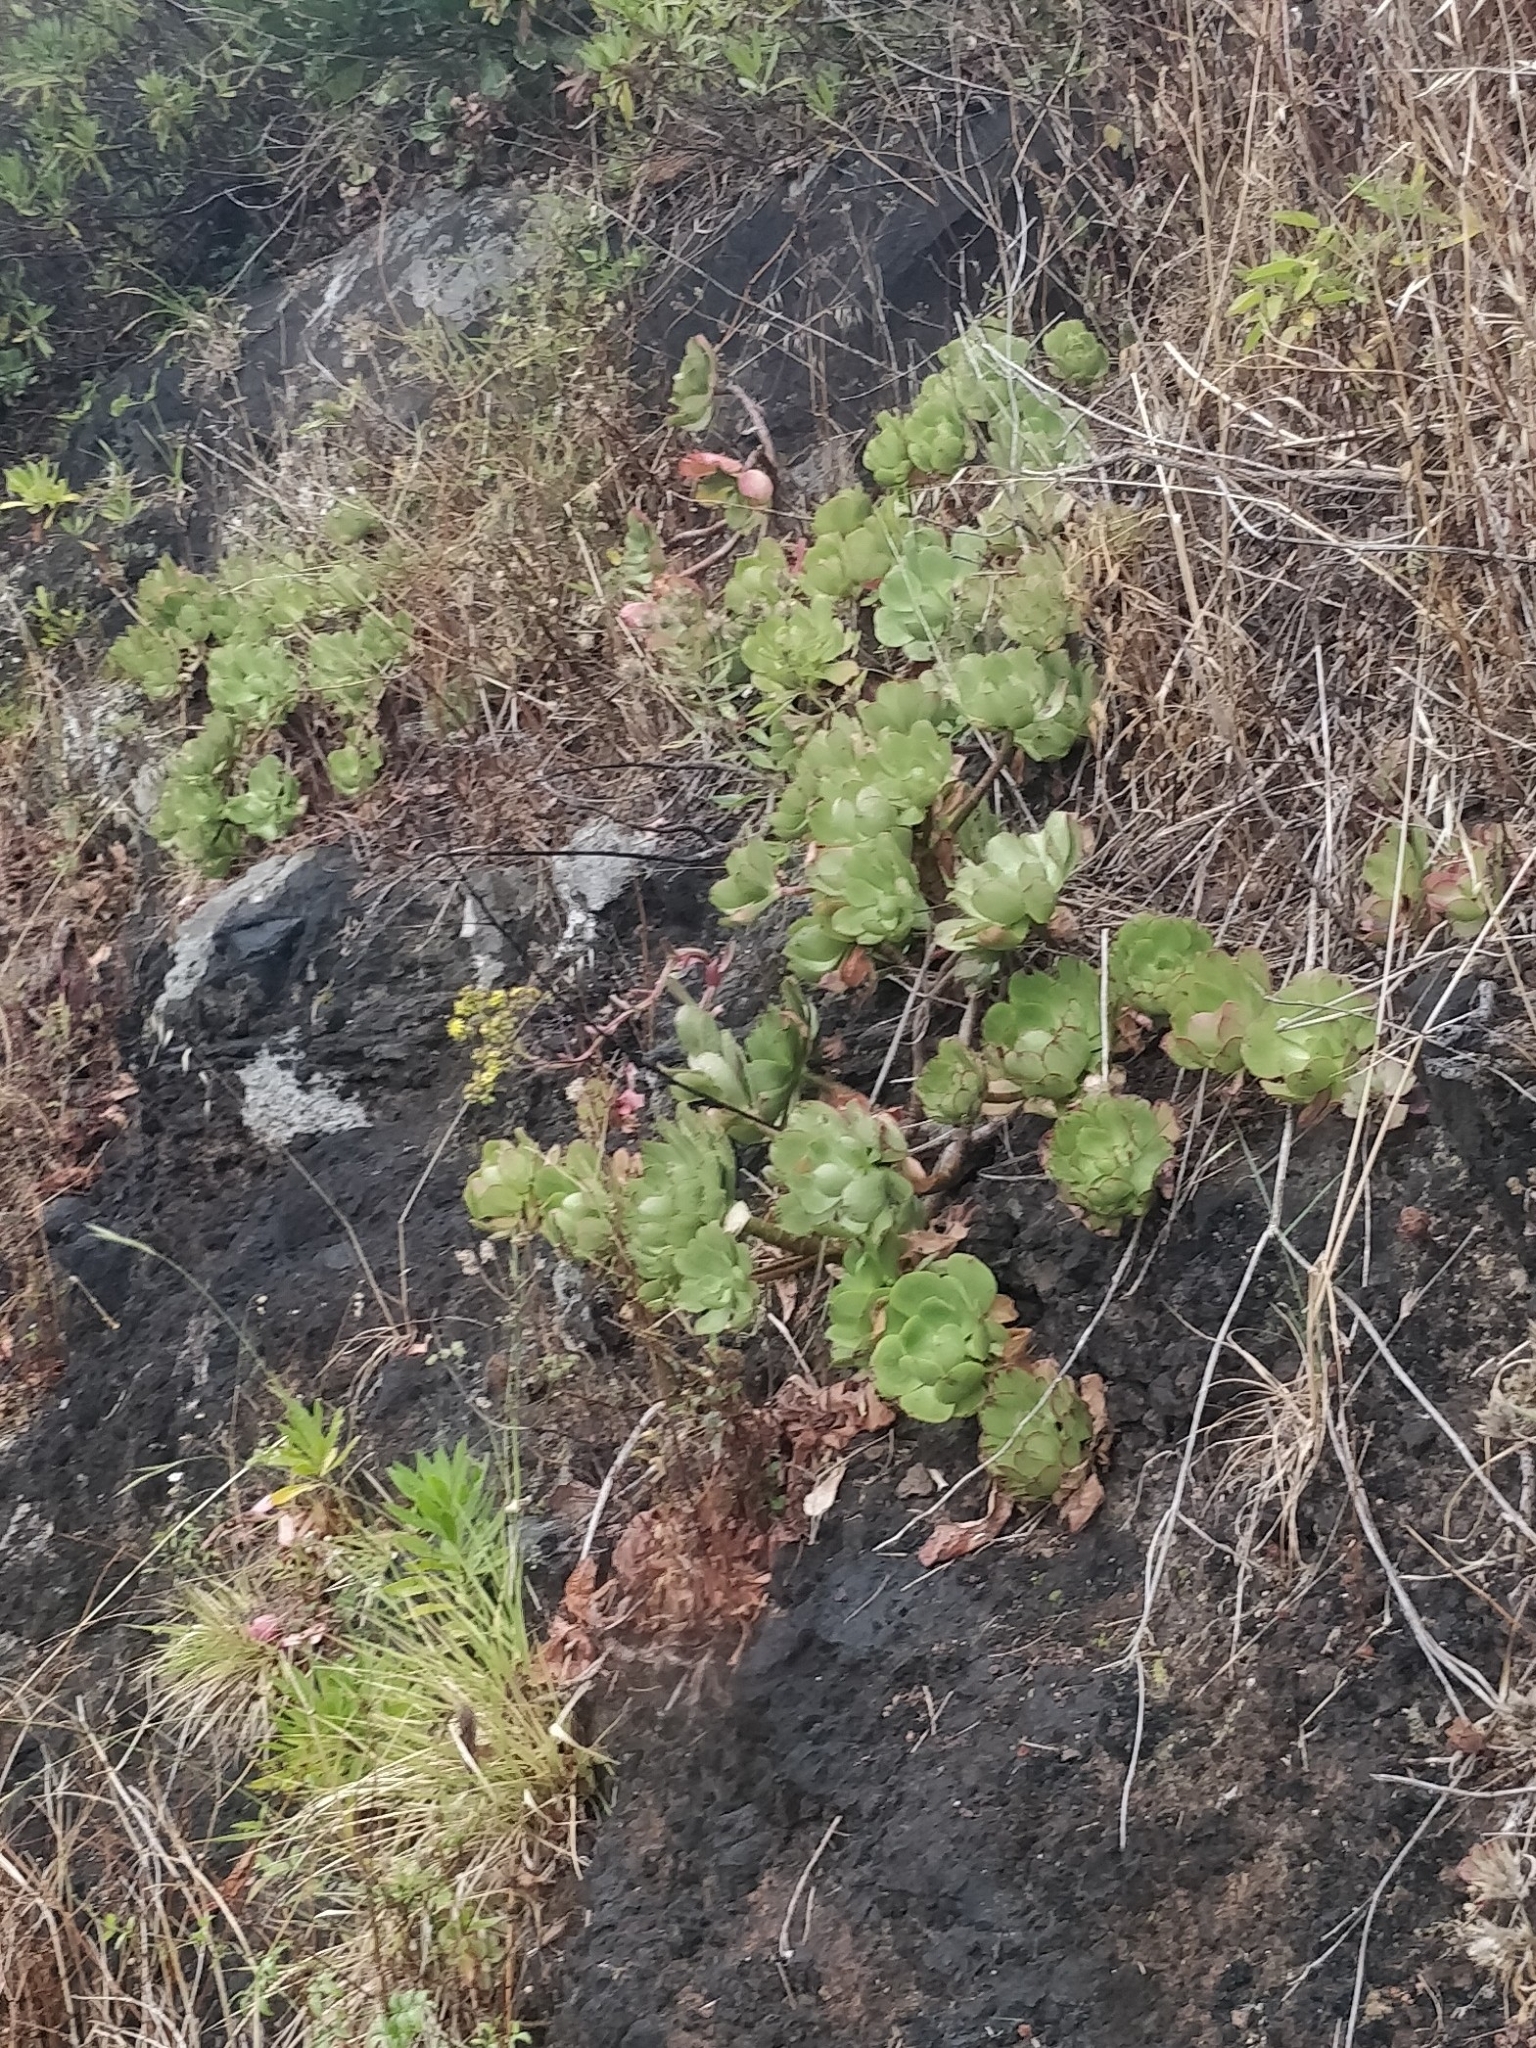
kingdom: Plantae
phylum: Tracheophyta
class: Magnoliopsida
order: Saxifragales
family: Crassulaceae
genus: Aeonium
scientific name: Aeonium glutinosum
